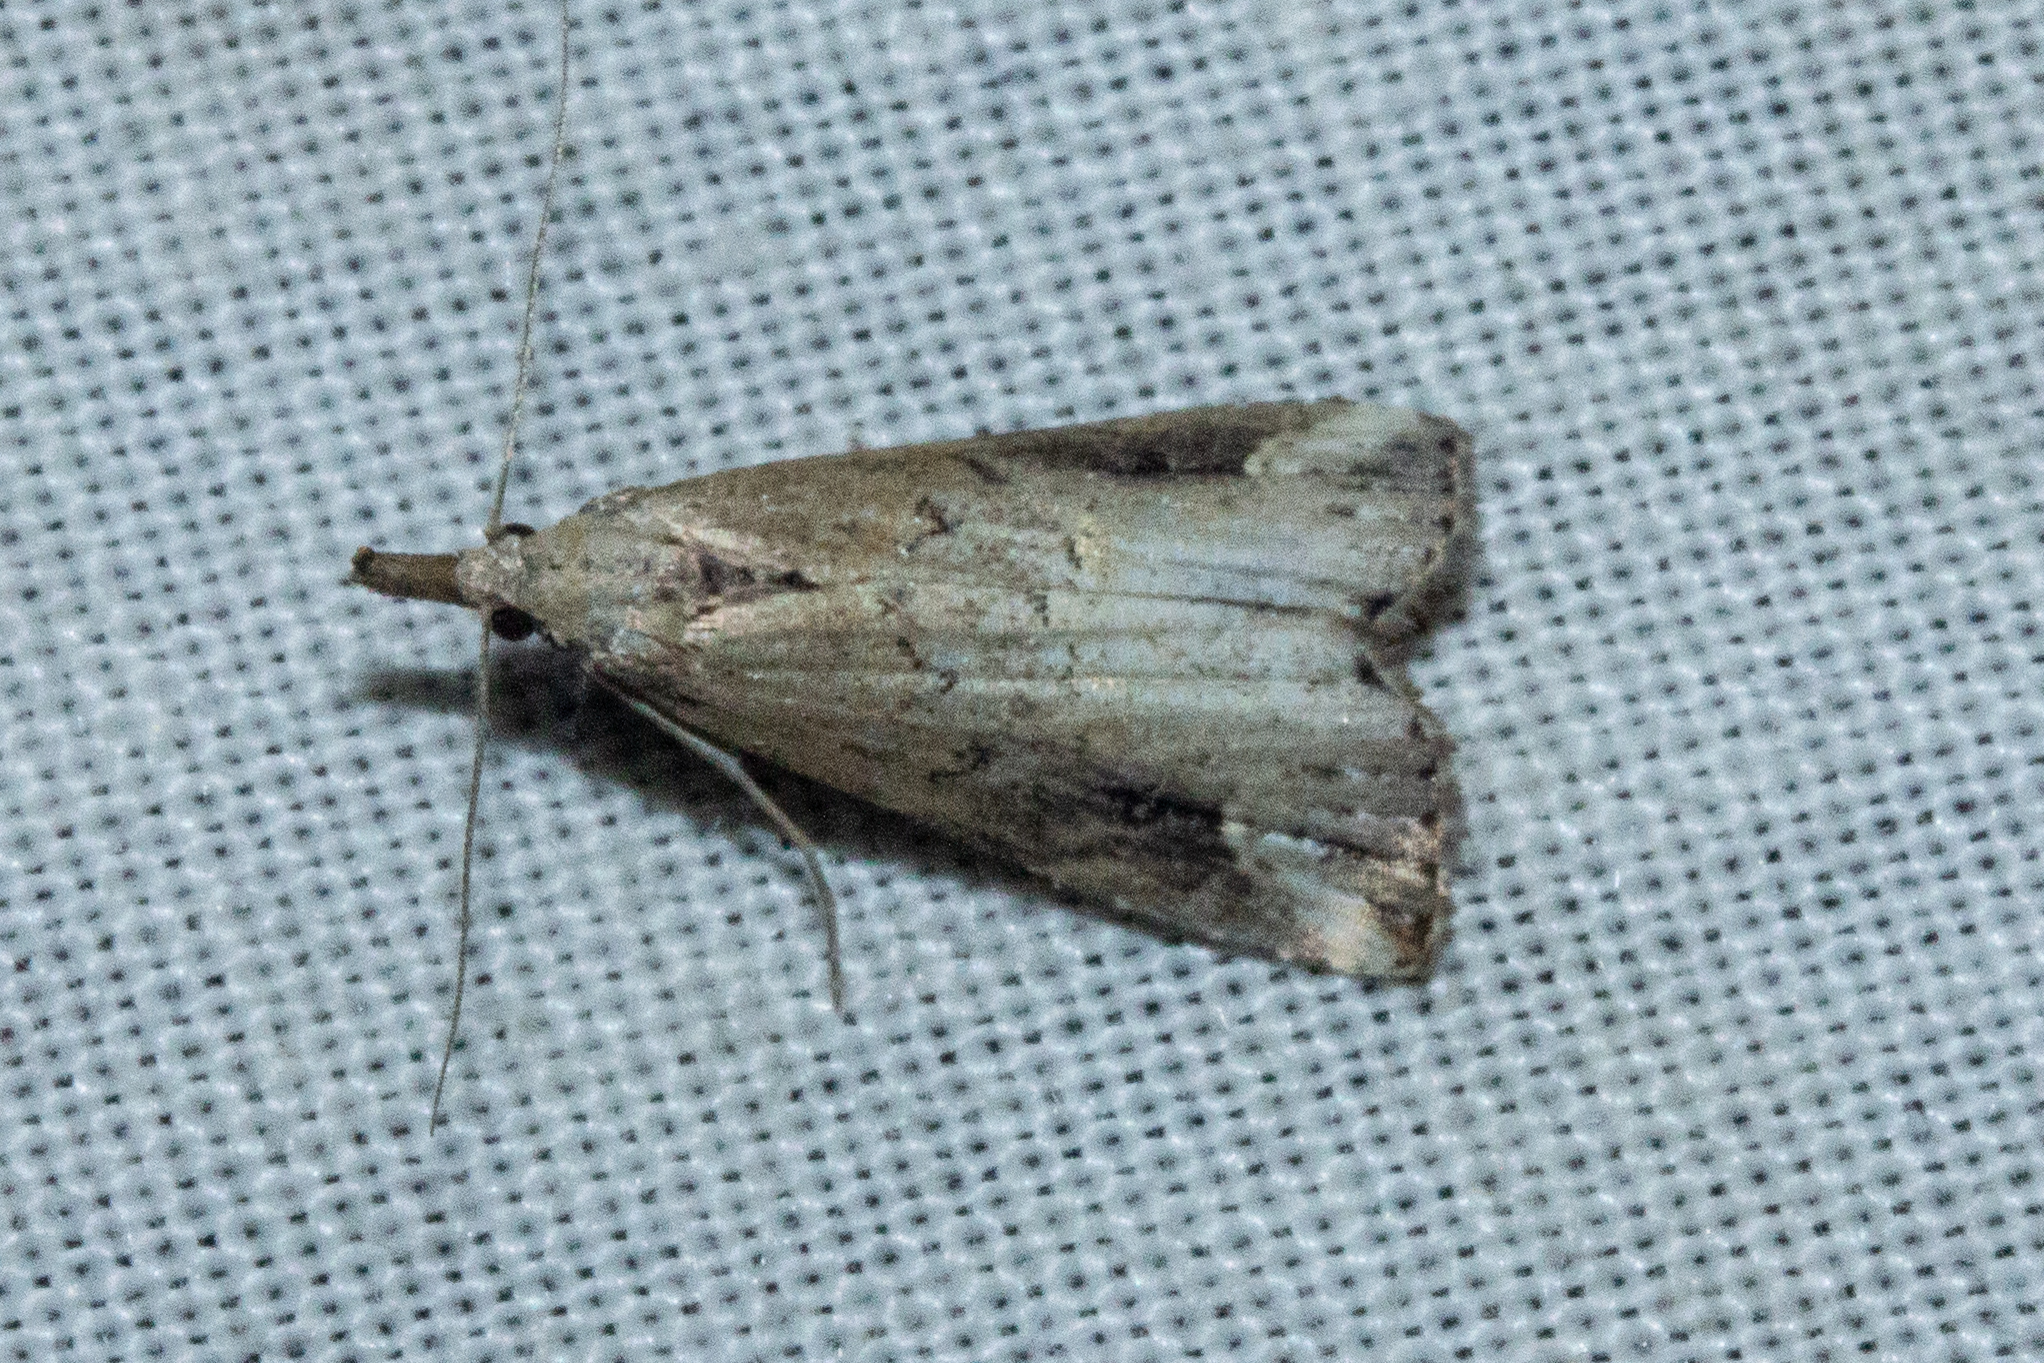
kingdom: Animalia
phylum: Arthropoda
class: Insecta
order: Lepidoptera
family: Erebidae
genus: Schrankia
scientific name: Schrankia costaestrigalis
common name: Pinion-streaked snout
